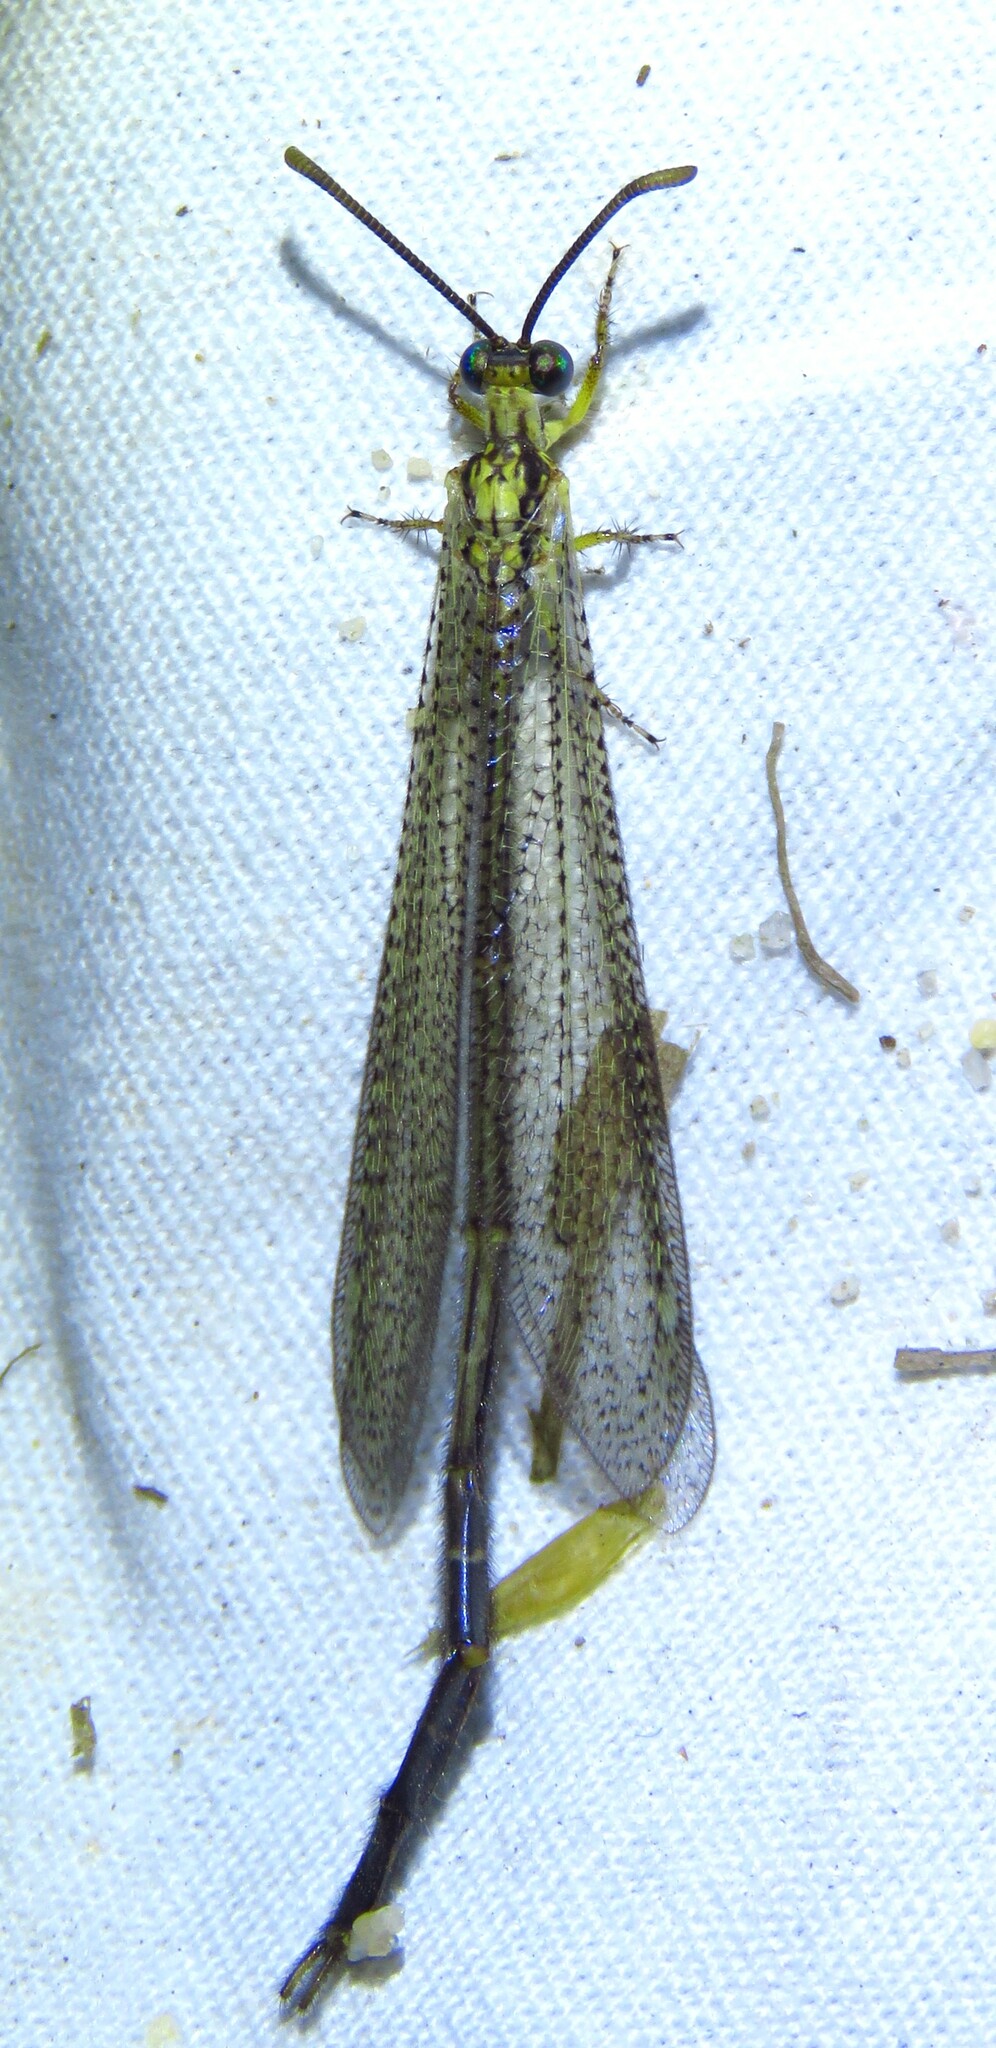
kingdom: Animalia
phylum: Arthropoda
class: Insecta
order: Neuroptera
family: Myrmeleontidae
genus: Brachynemurus
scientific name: Brachynemurus abdominalis
